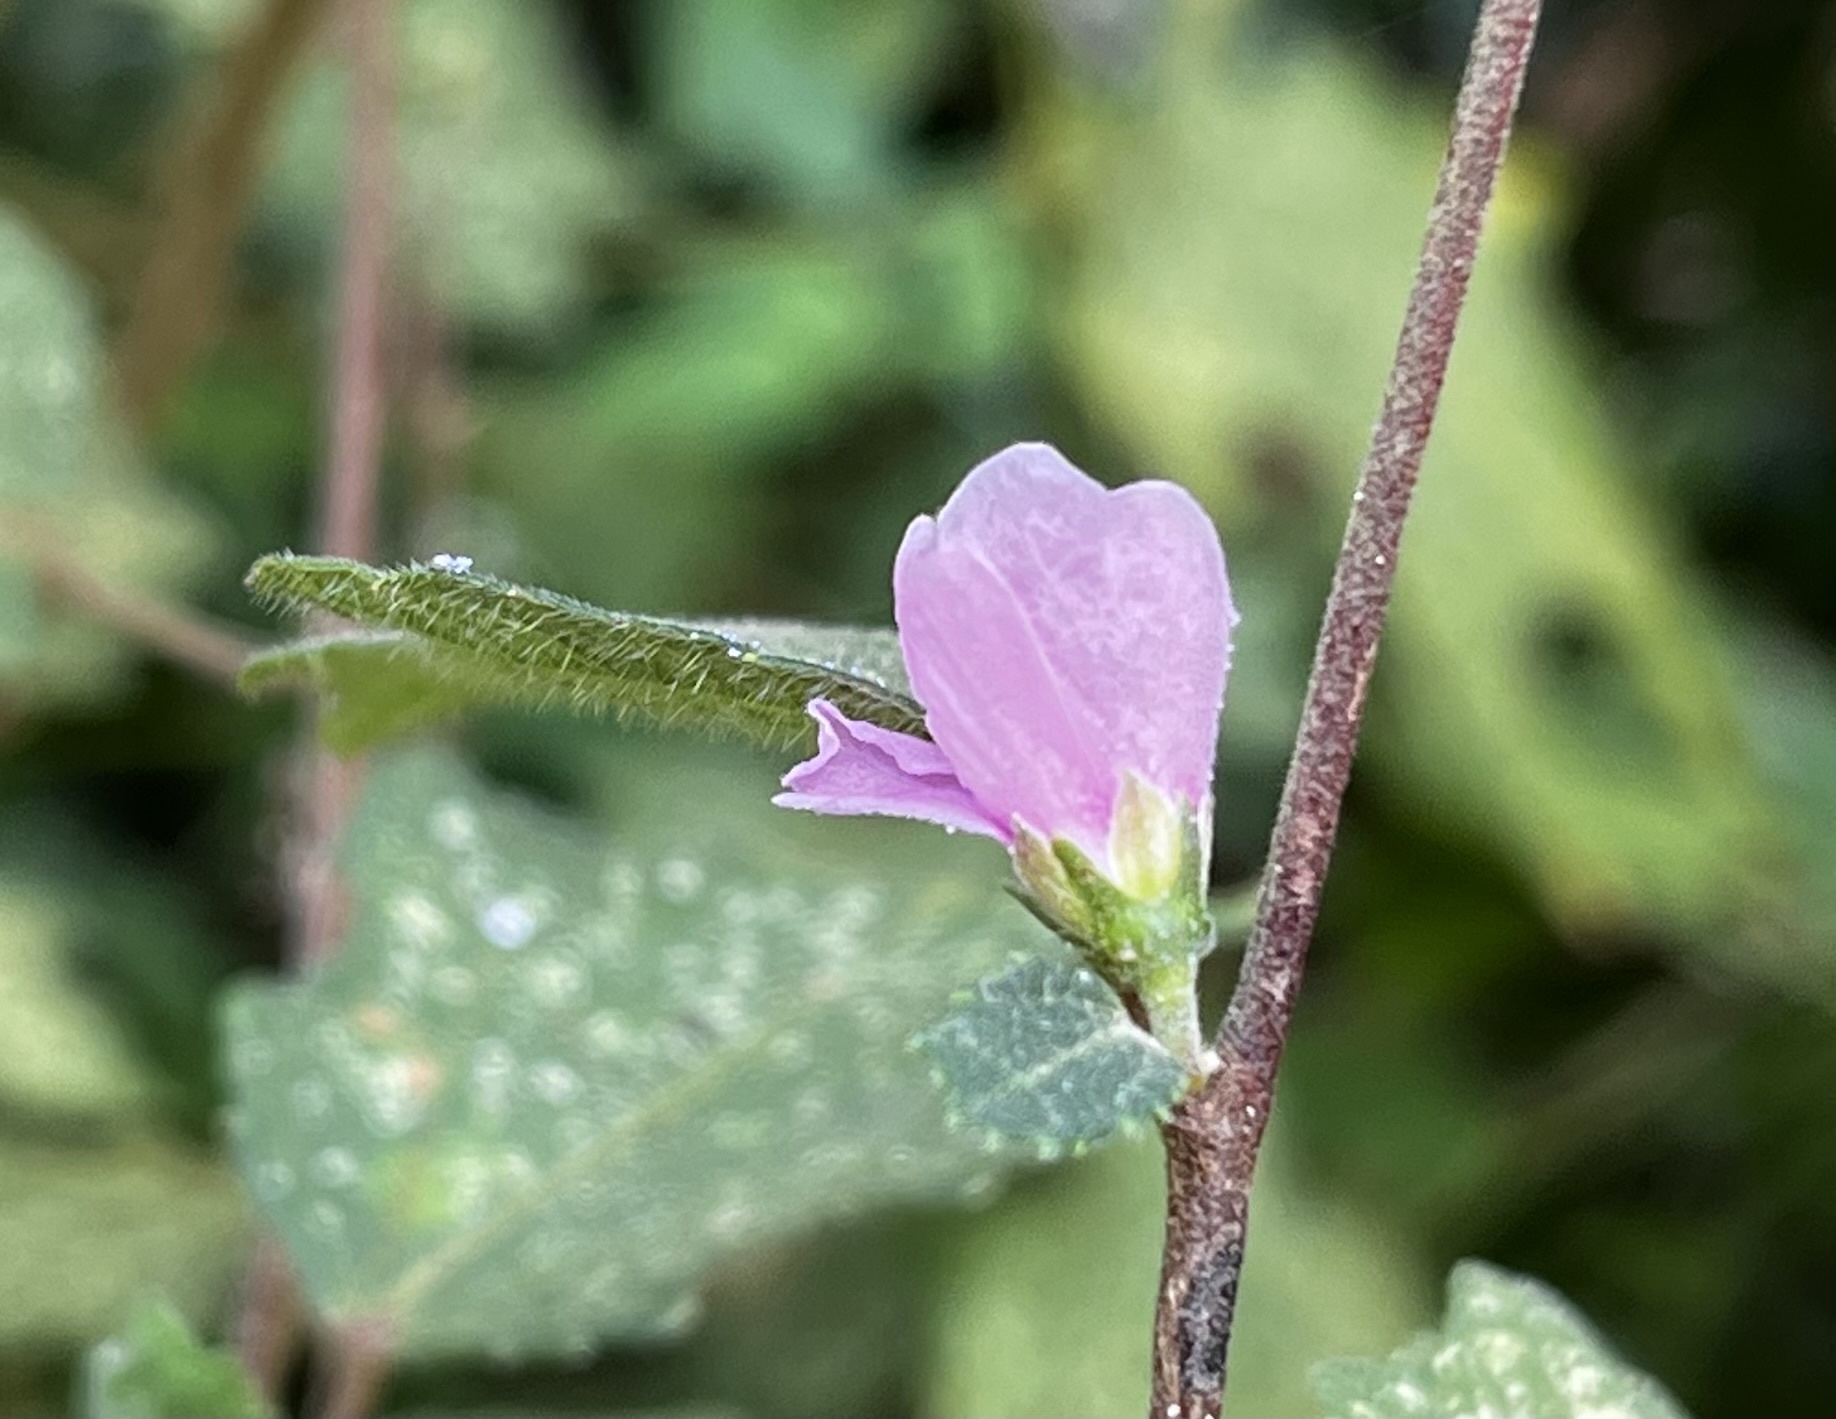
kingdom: Plantae
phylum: Tracheophyta
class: Magnoliopsida
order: Malvales
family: Malvaceae
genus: Urena
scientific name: Urena procumbens
